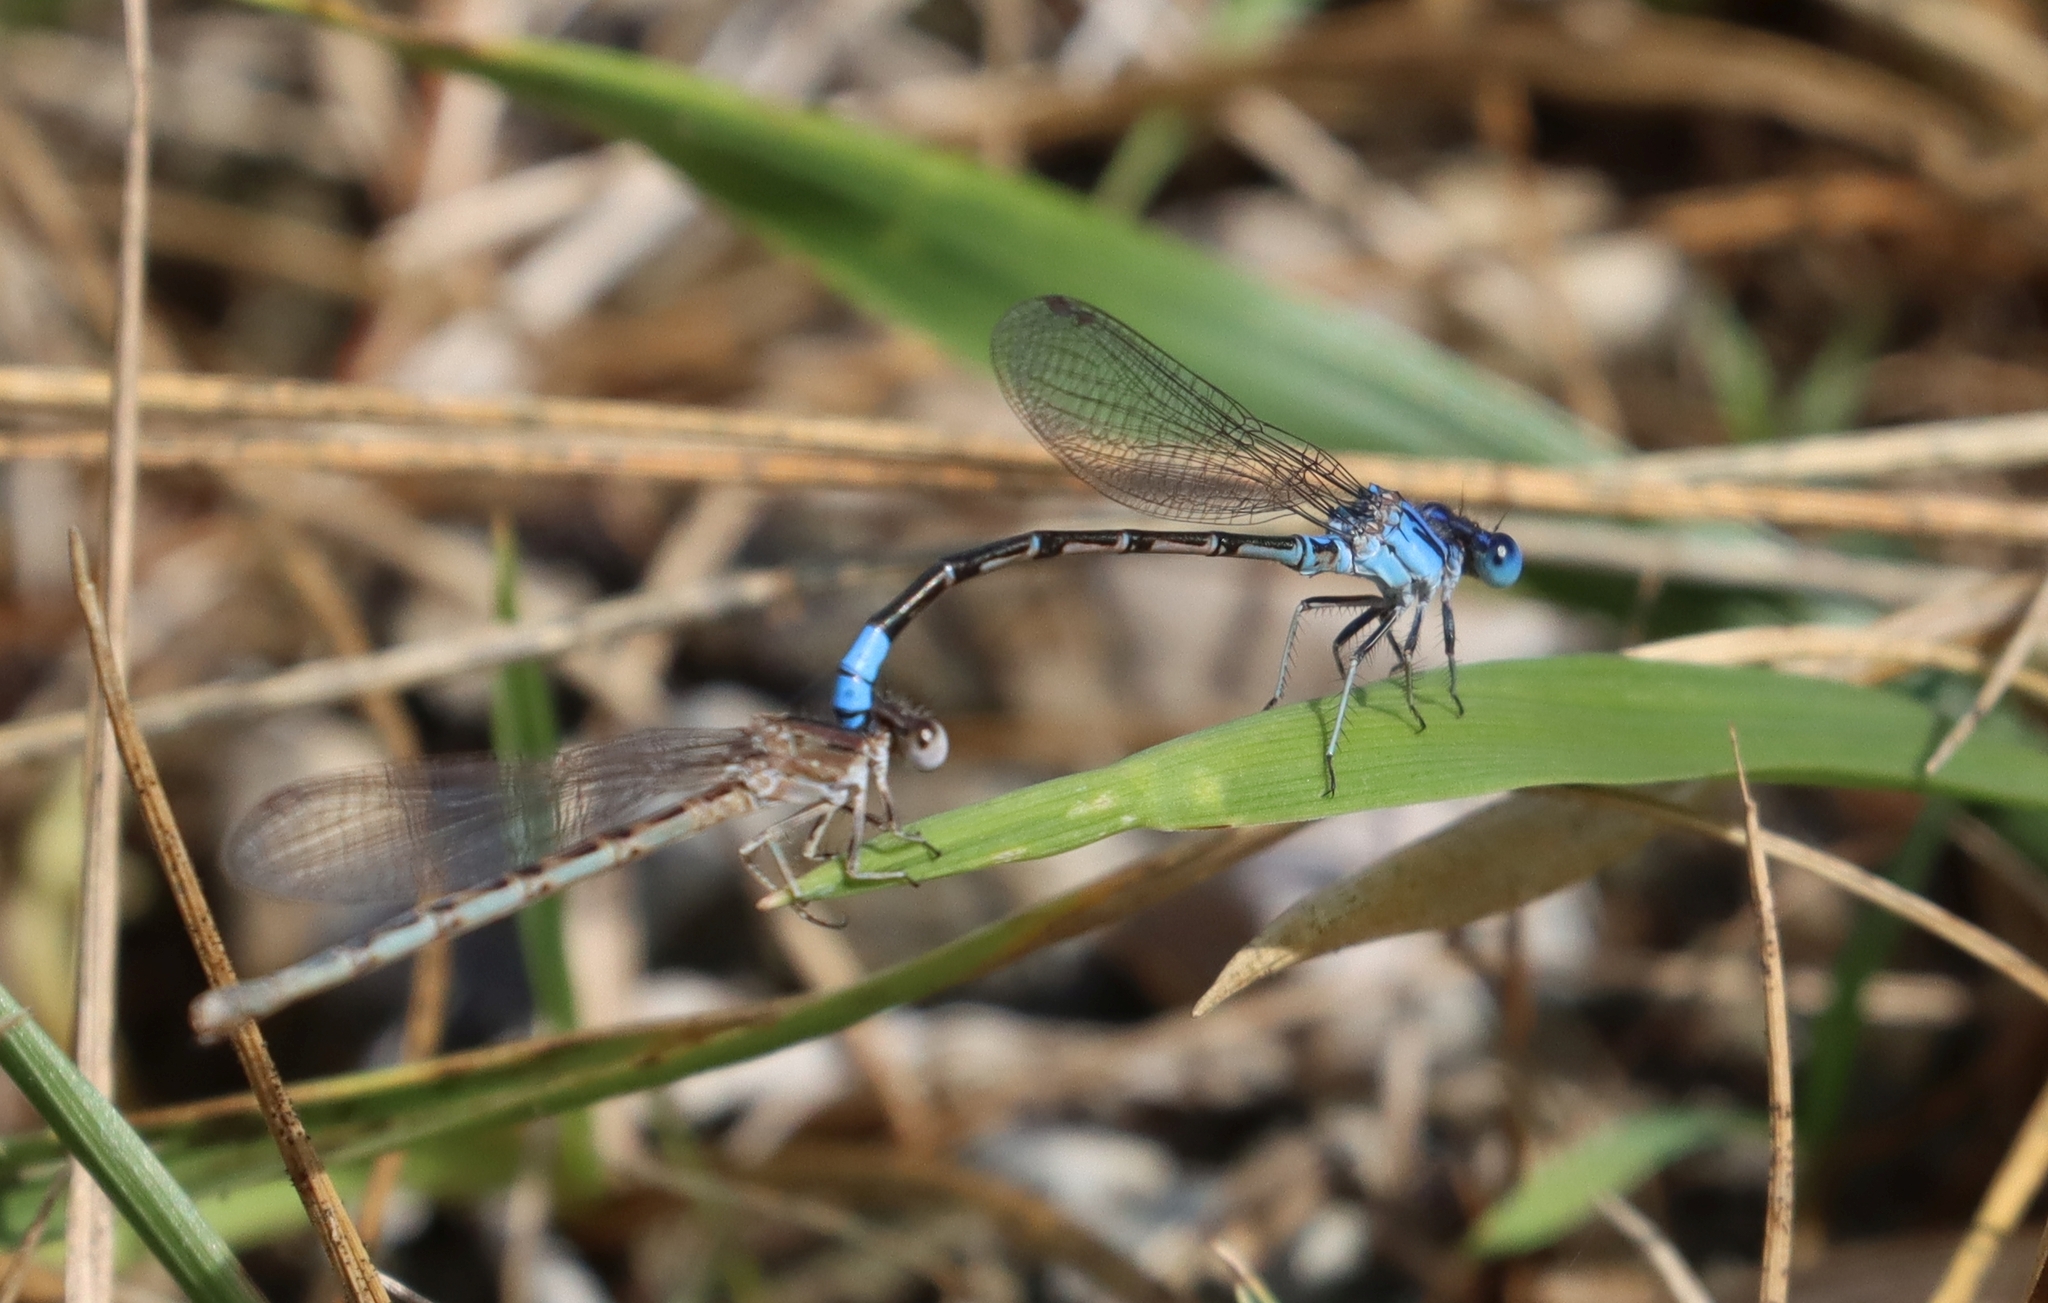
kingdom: Animalia
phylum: Arthropoda
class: Insecta
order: Odonata
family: Coenagrionidae
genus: Argia
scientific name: Argia alberta
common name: Paiute dancer
